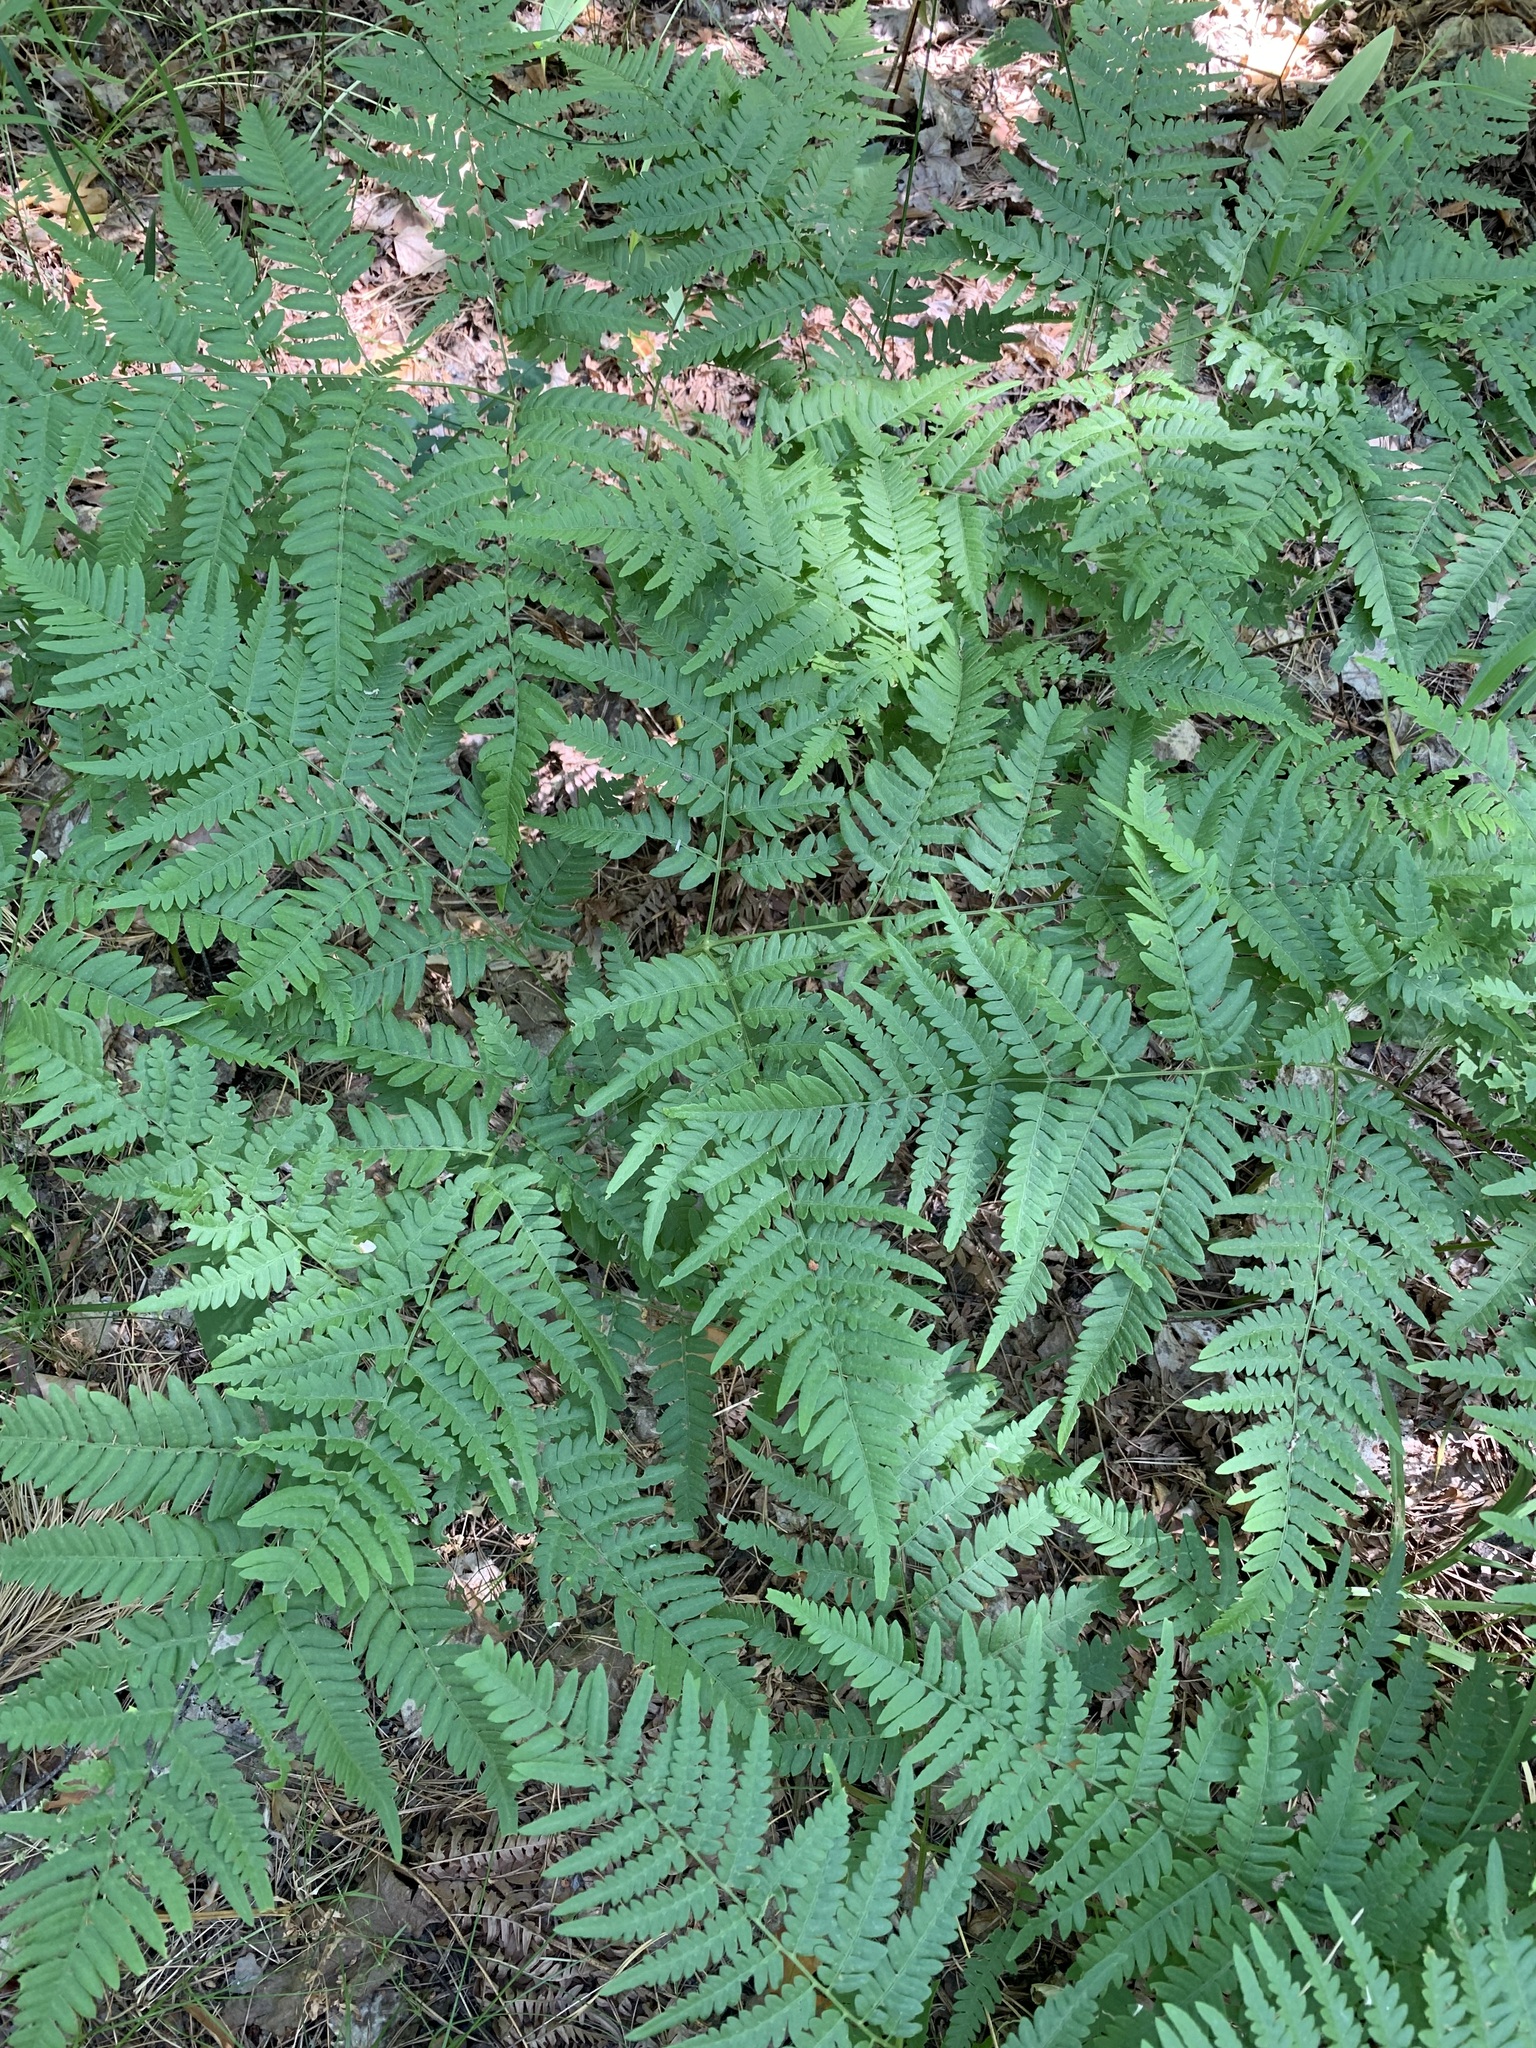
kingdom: Plantae
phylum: Tracheophyta
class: Polypodiopsida
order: Polypodiales
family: Dennstaedtiaceae
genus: Pteridium
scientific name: Pteridium aquilinum
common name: Bracken
